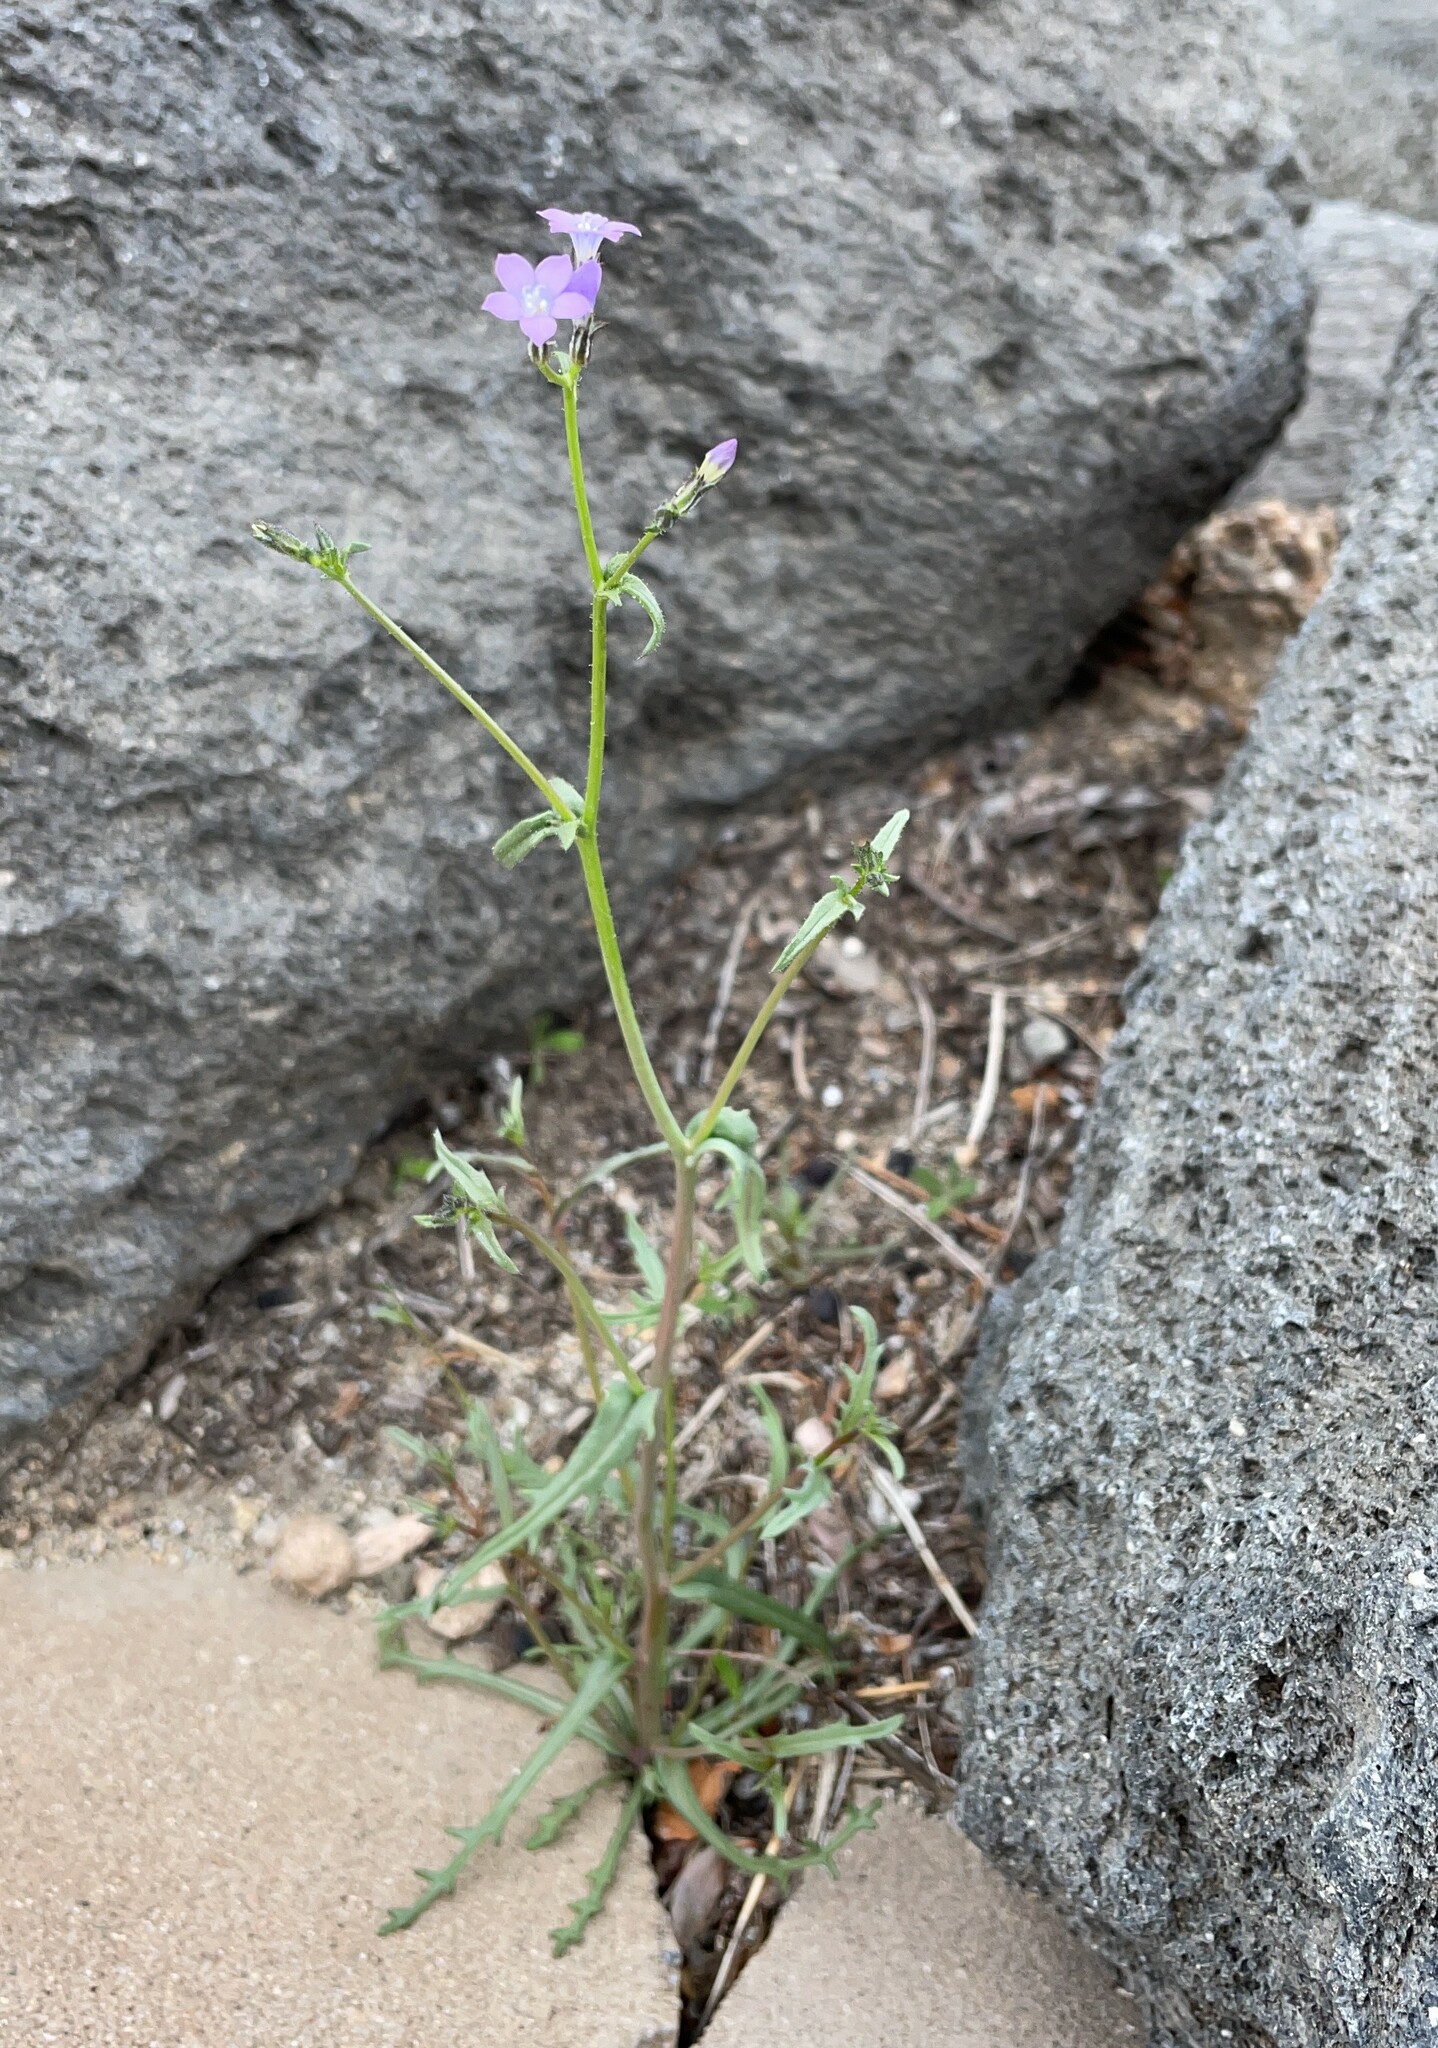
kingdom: Plantae
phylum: Tracheophyta
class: Magnoliopsida
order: Ericales
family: Polemoniaceae
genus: Gilia
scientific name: Gilia sinuata
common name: Rosy gilia
